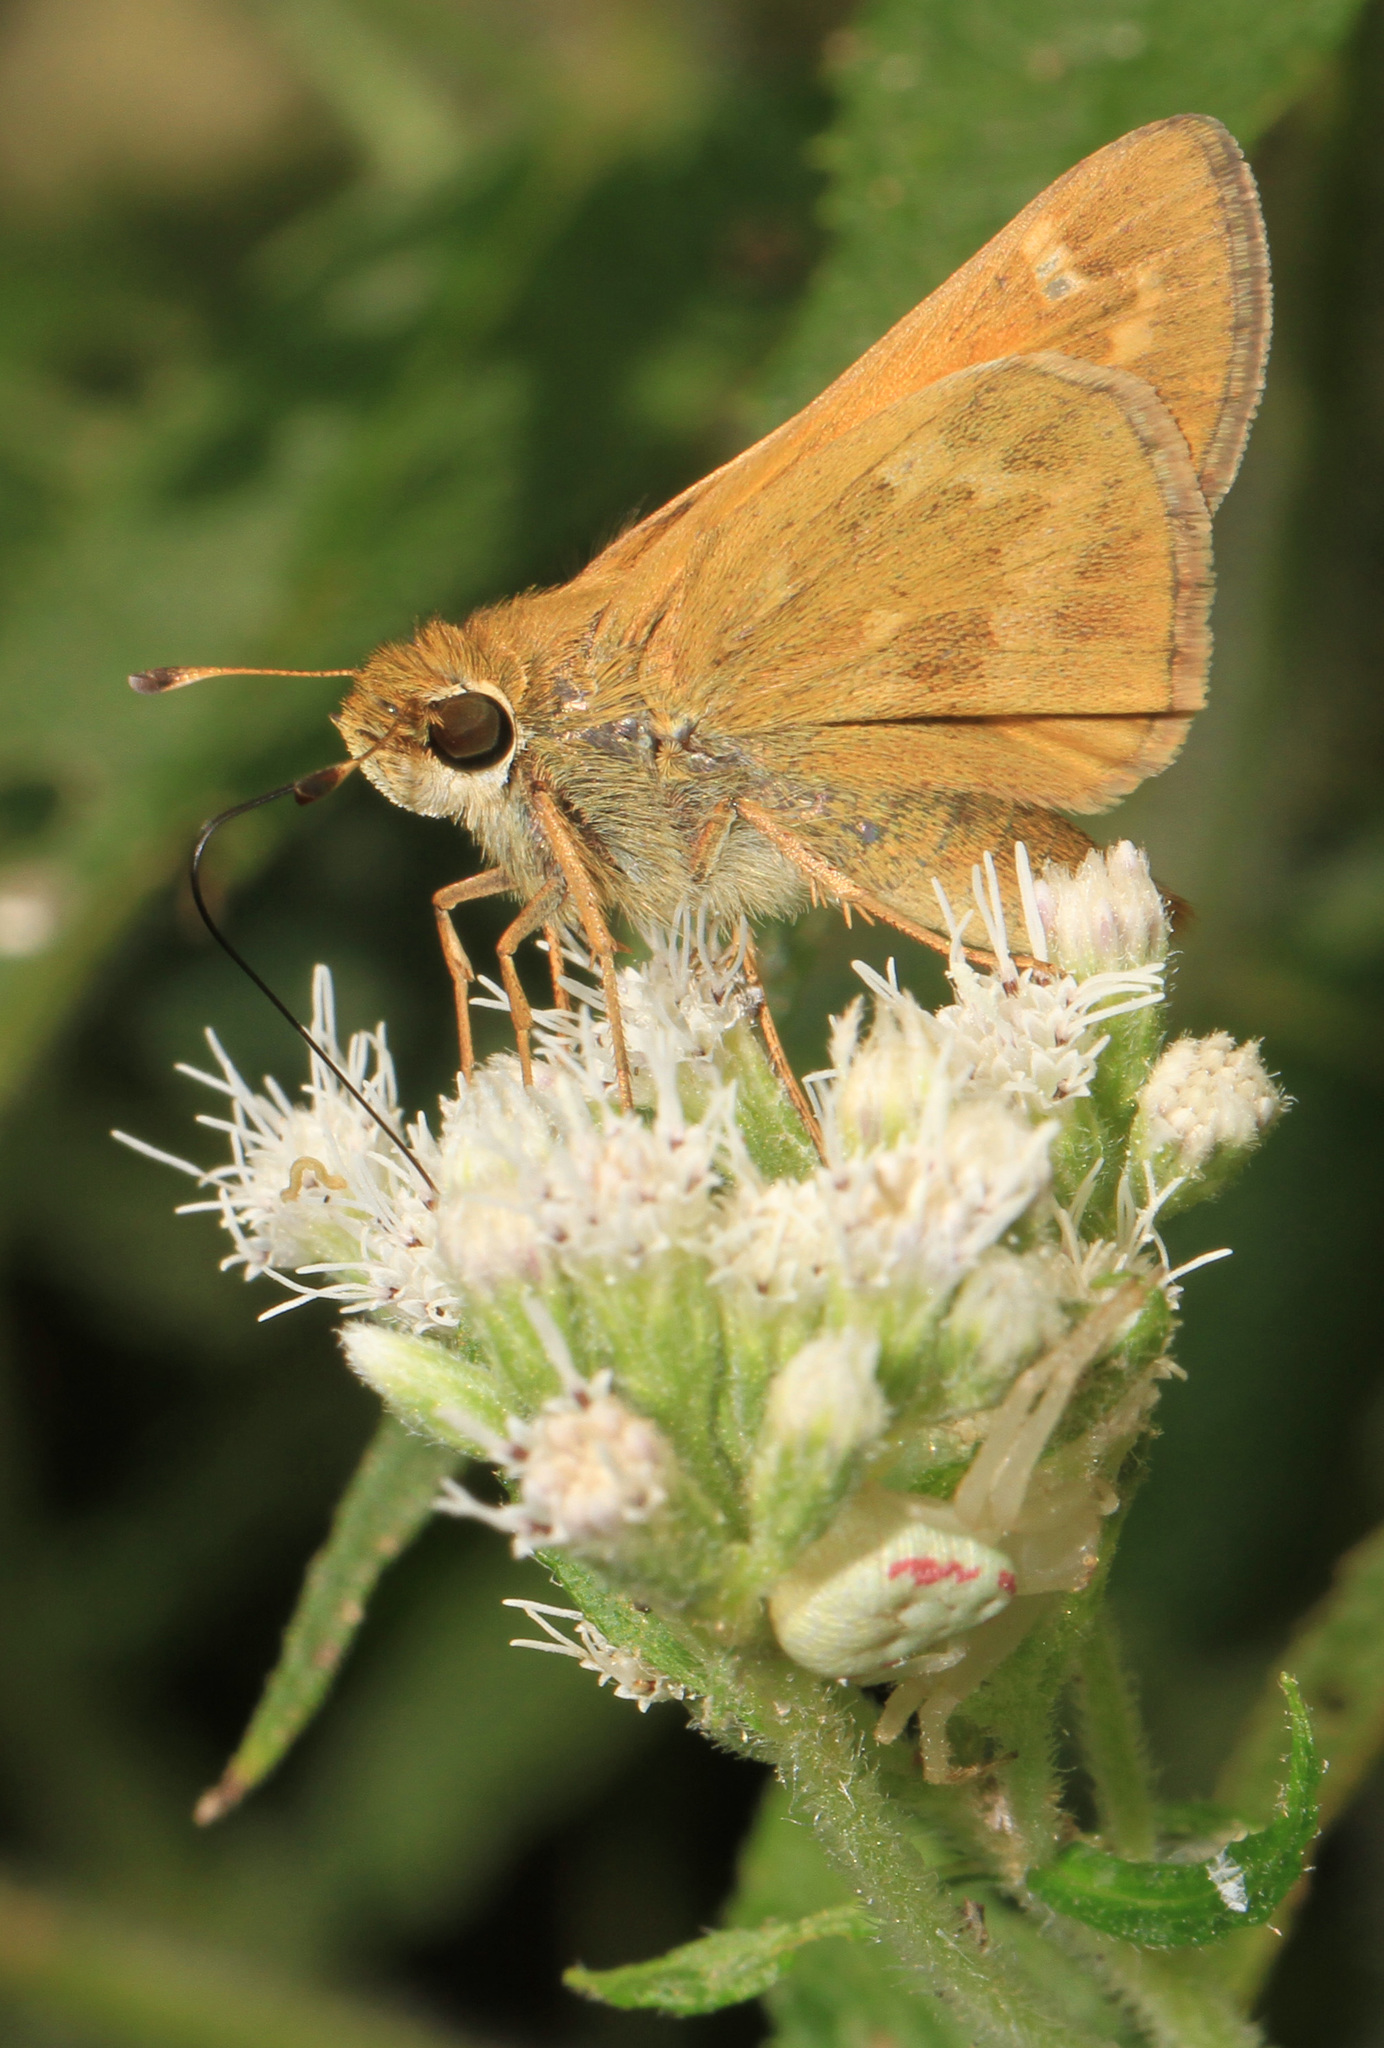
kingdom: Animalia
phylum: Arthropoda
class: Insecta
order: Lepidoptera
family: Hesperiidae
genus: Atalopedes
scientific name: Atalopedes
